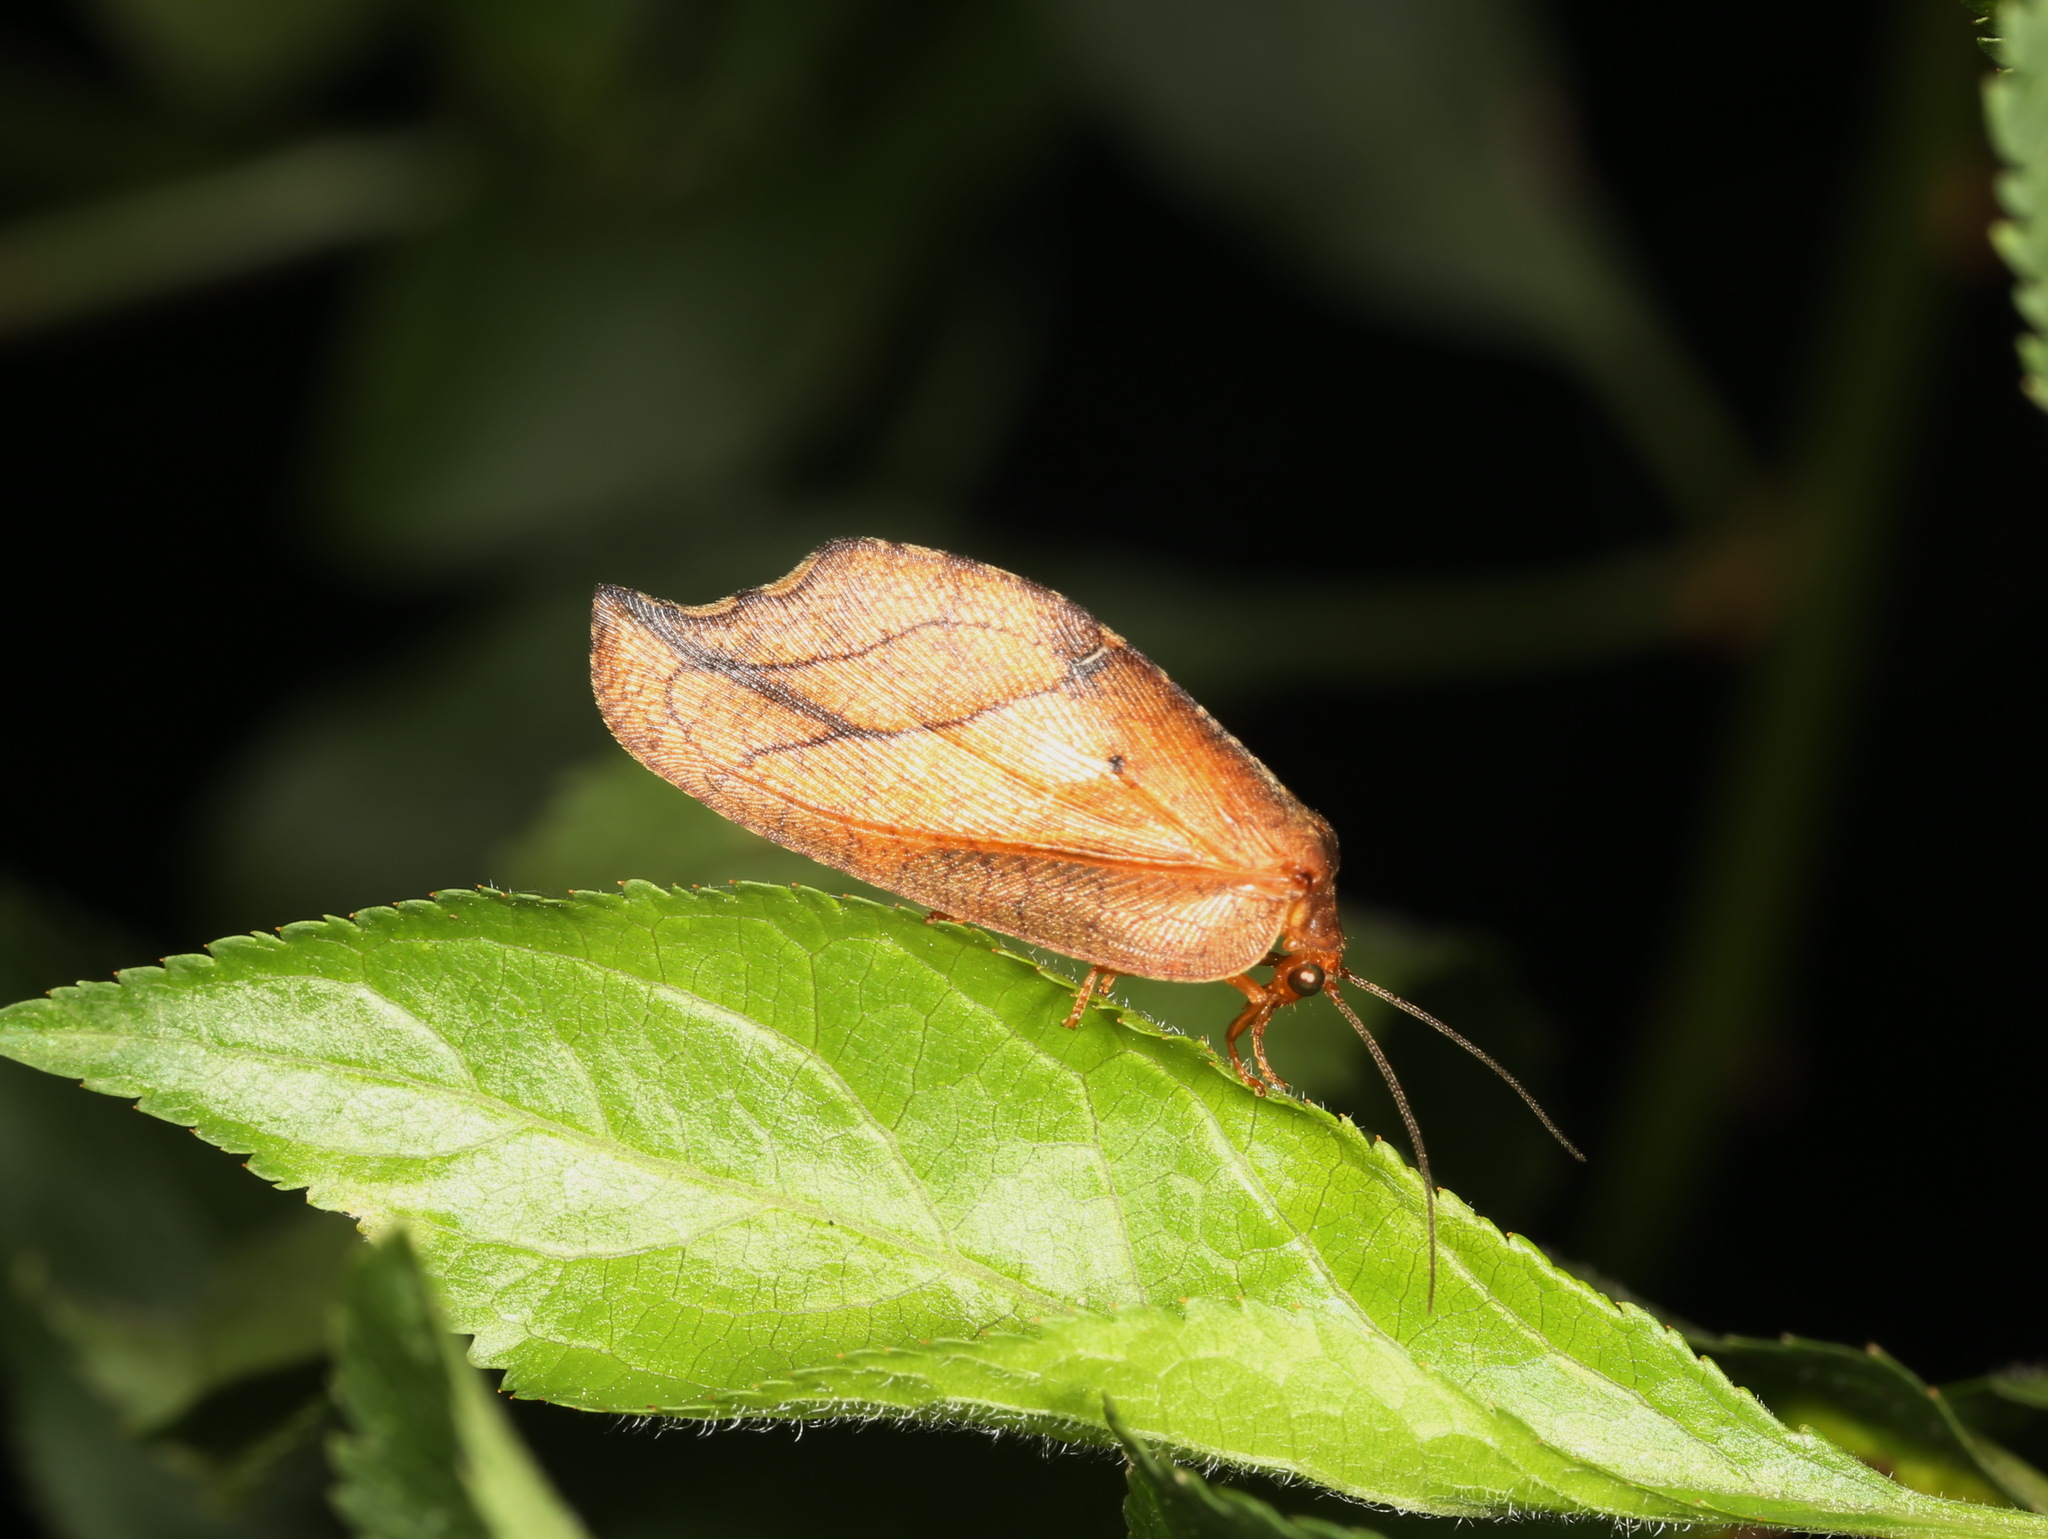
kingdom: Animalia
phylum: Arthropoda
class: Insecta
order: Neuroptera
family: Hemerobiidae
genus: Drepanepteryx
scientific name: Drepanepteryx phalaenoides
